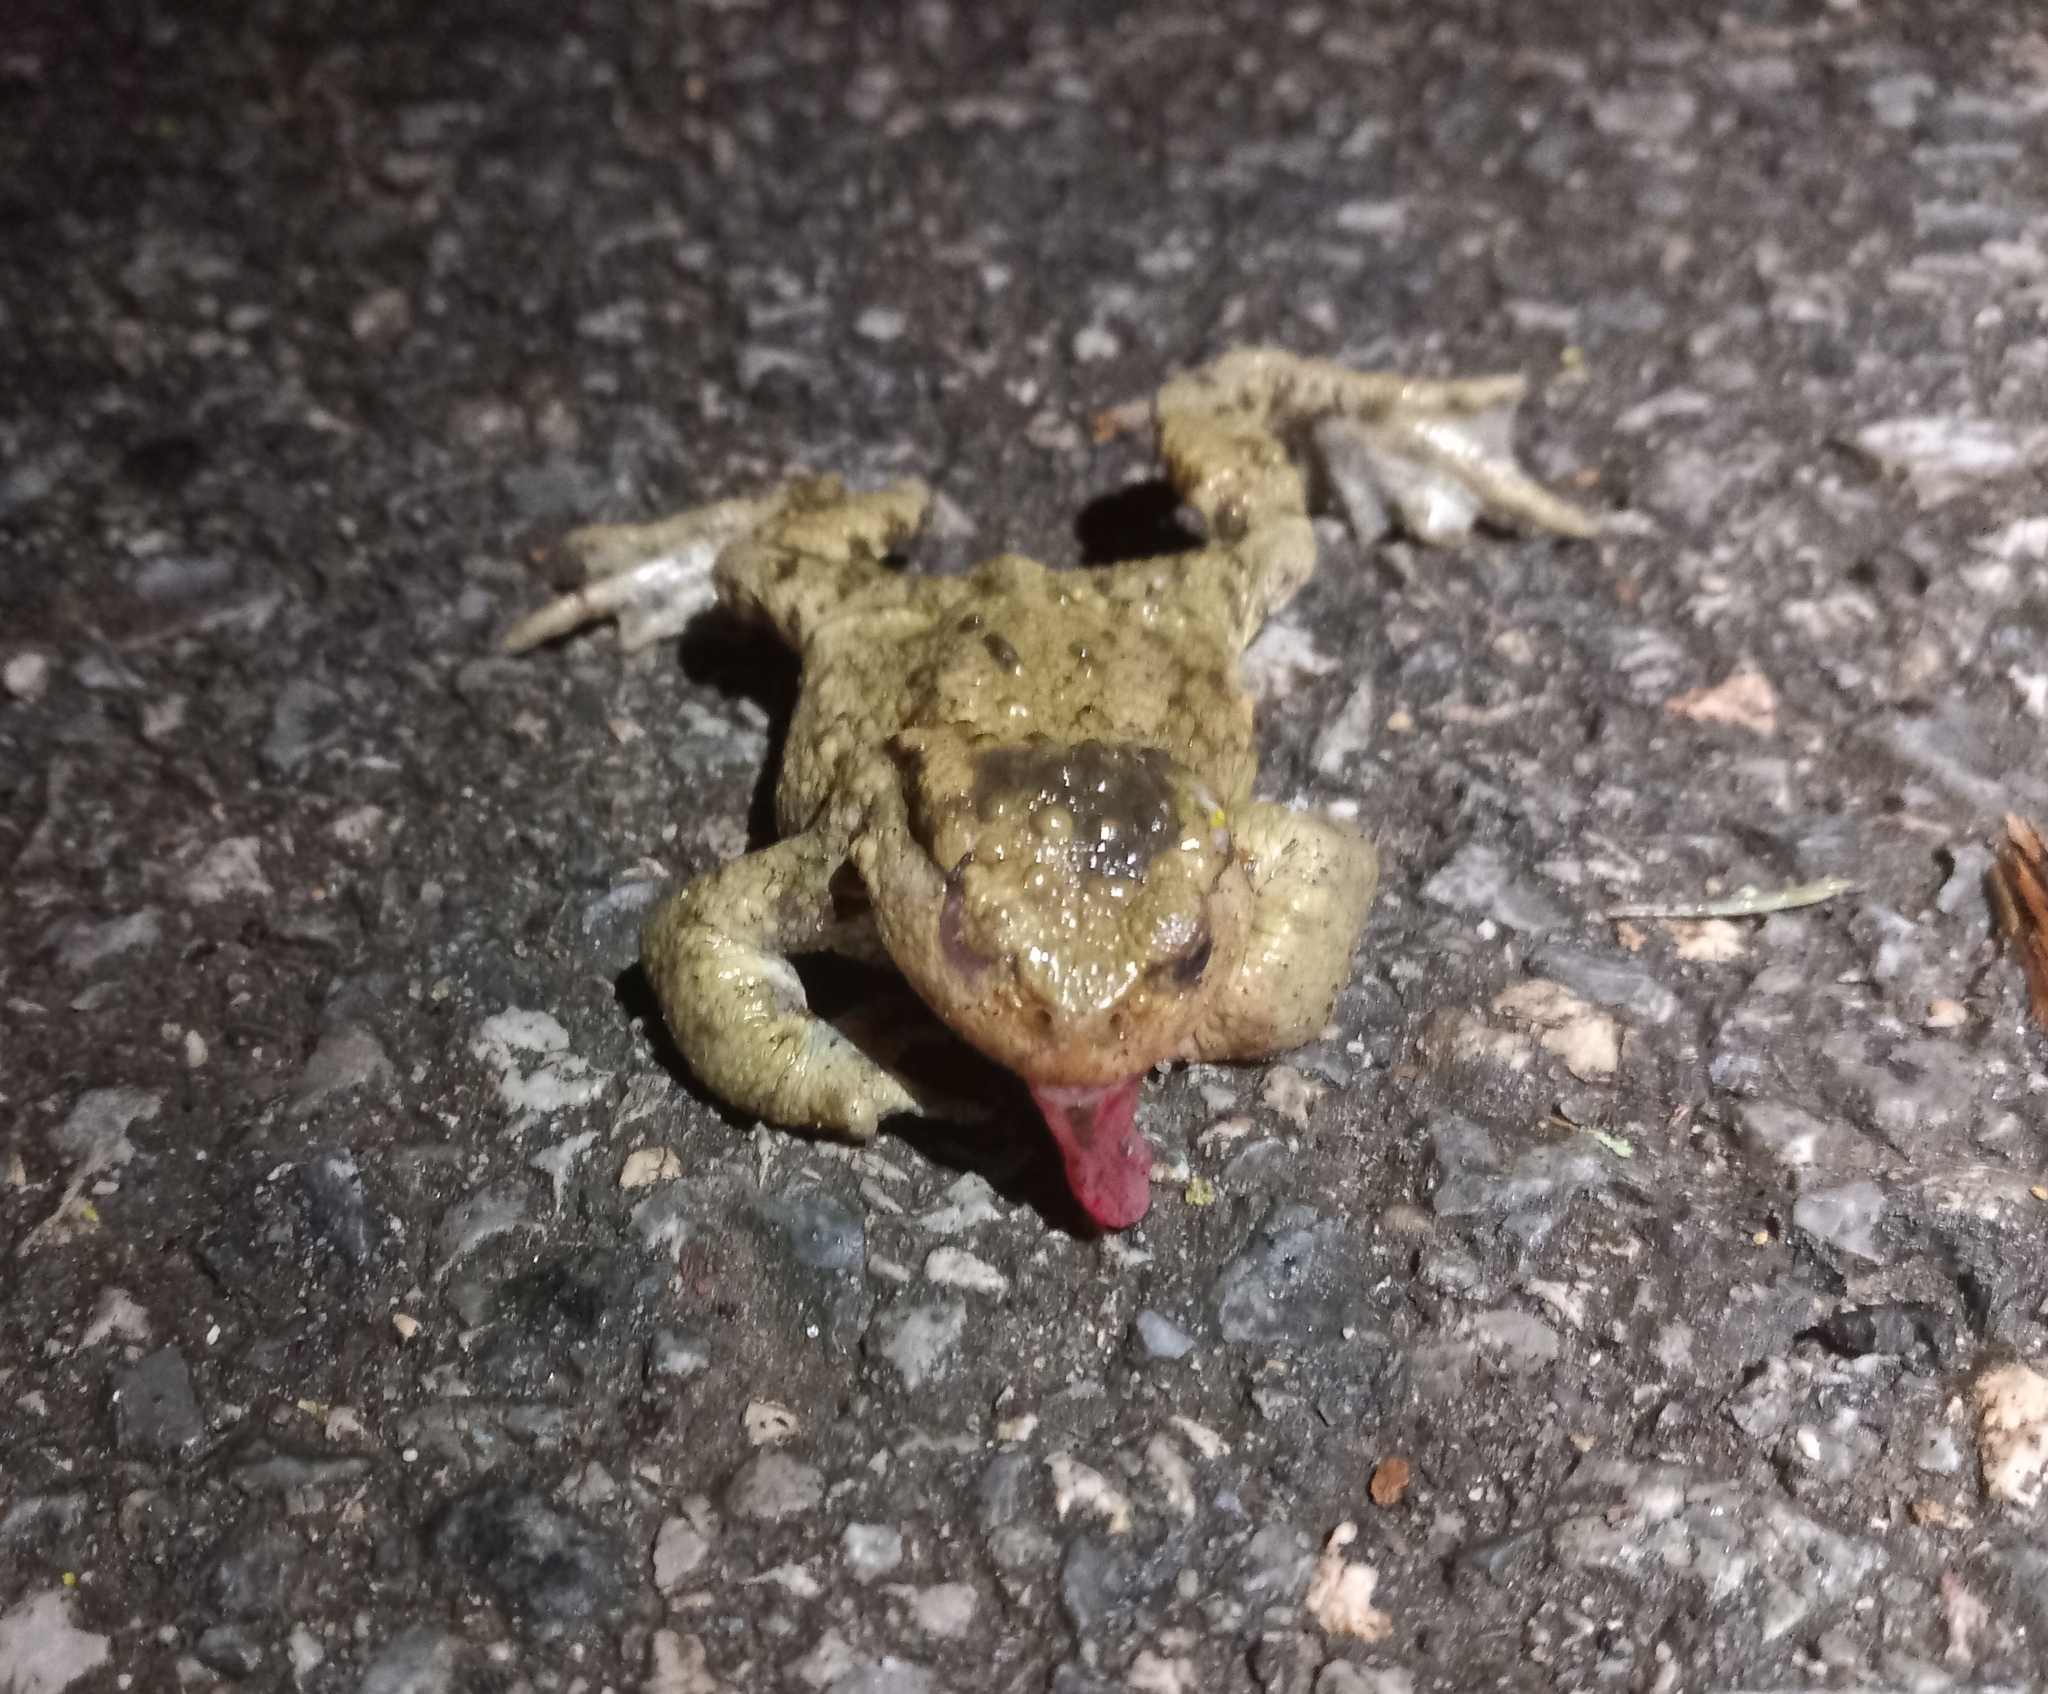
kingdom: Animalia
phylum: Chordata
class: Amphibia
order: Anura
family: Bufonidae
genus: Bufo
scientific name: Bufo bufo
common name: Common toad
